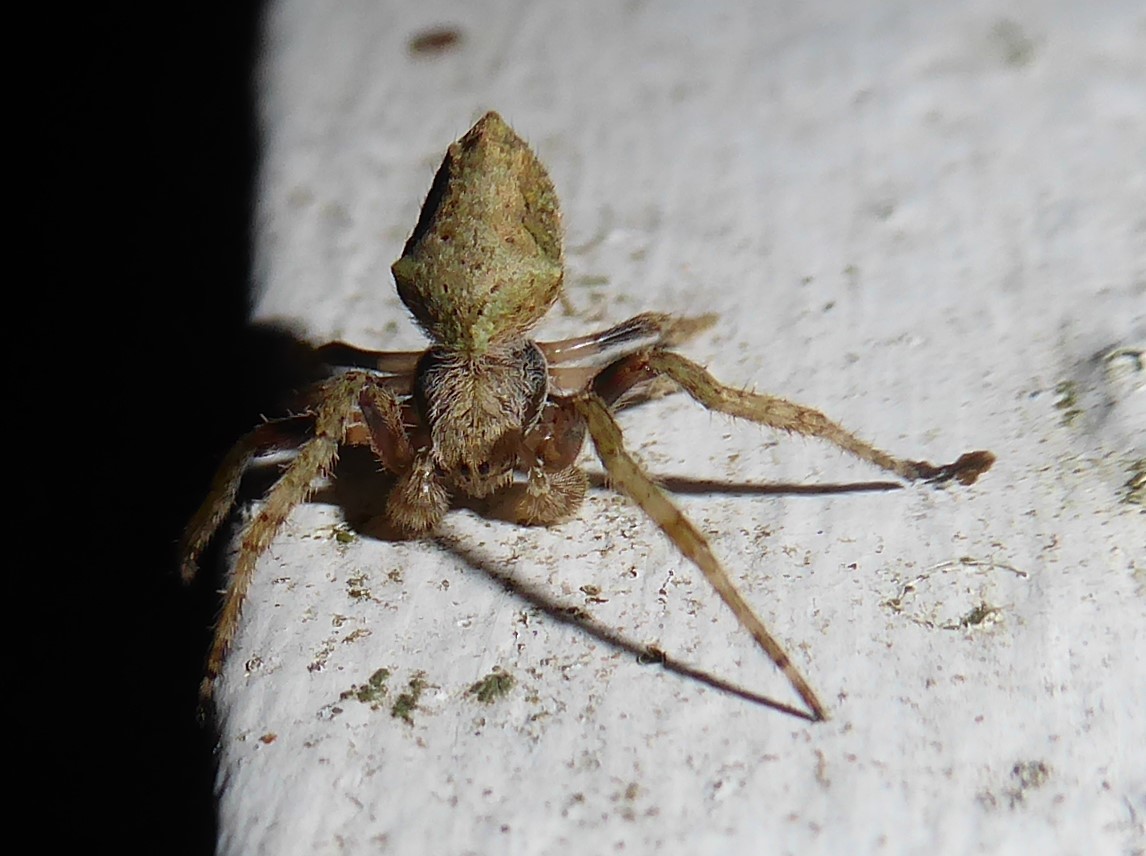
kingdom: Animalia
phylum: Arthropoda
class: Arachnida
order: Araneae
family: Araneidae
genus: Eriophora
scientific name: Eriophora pustulosa
